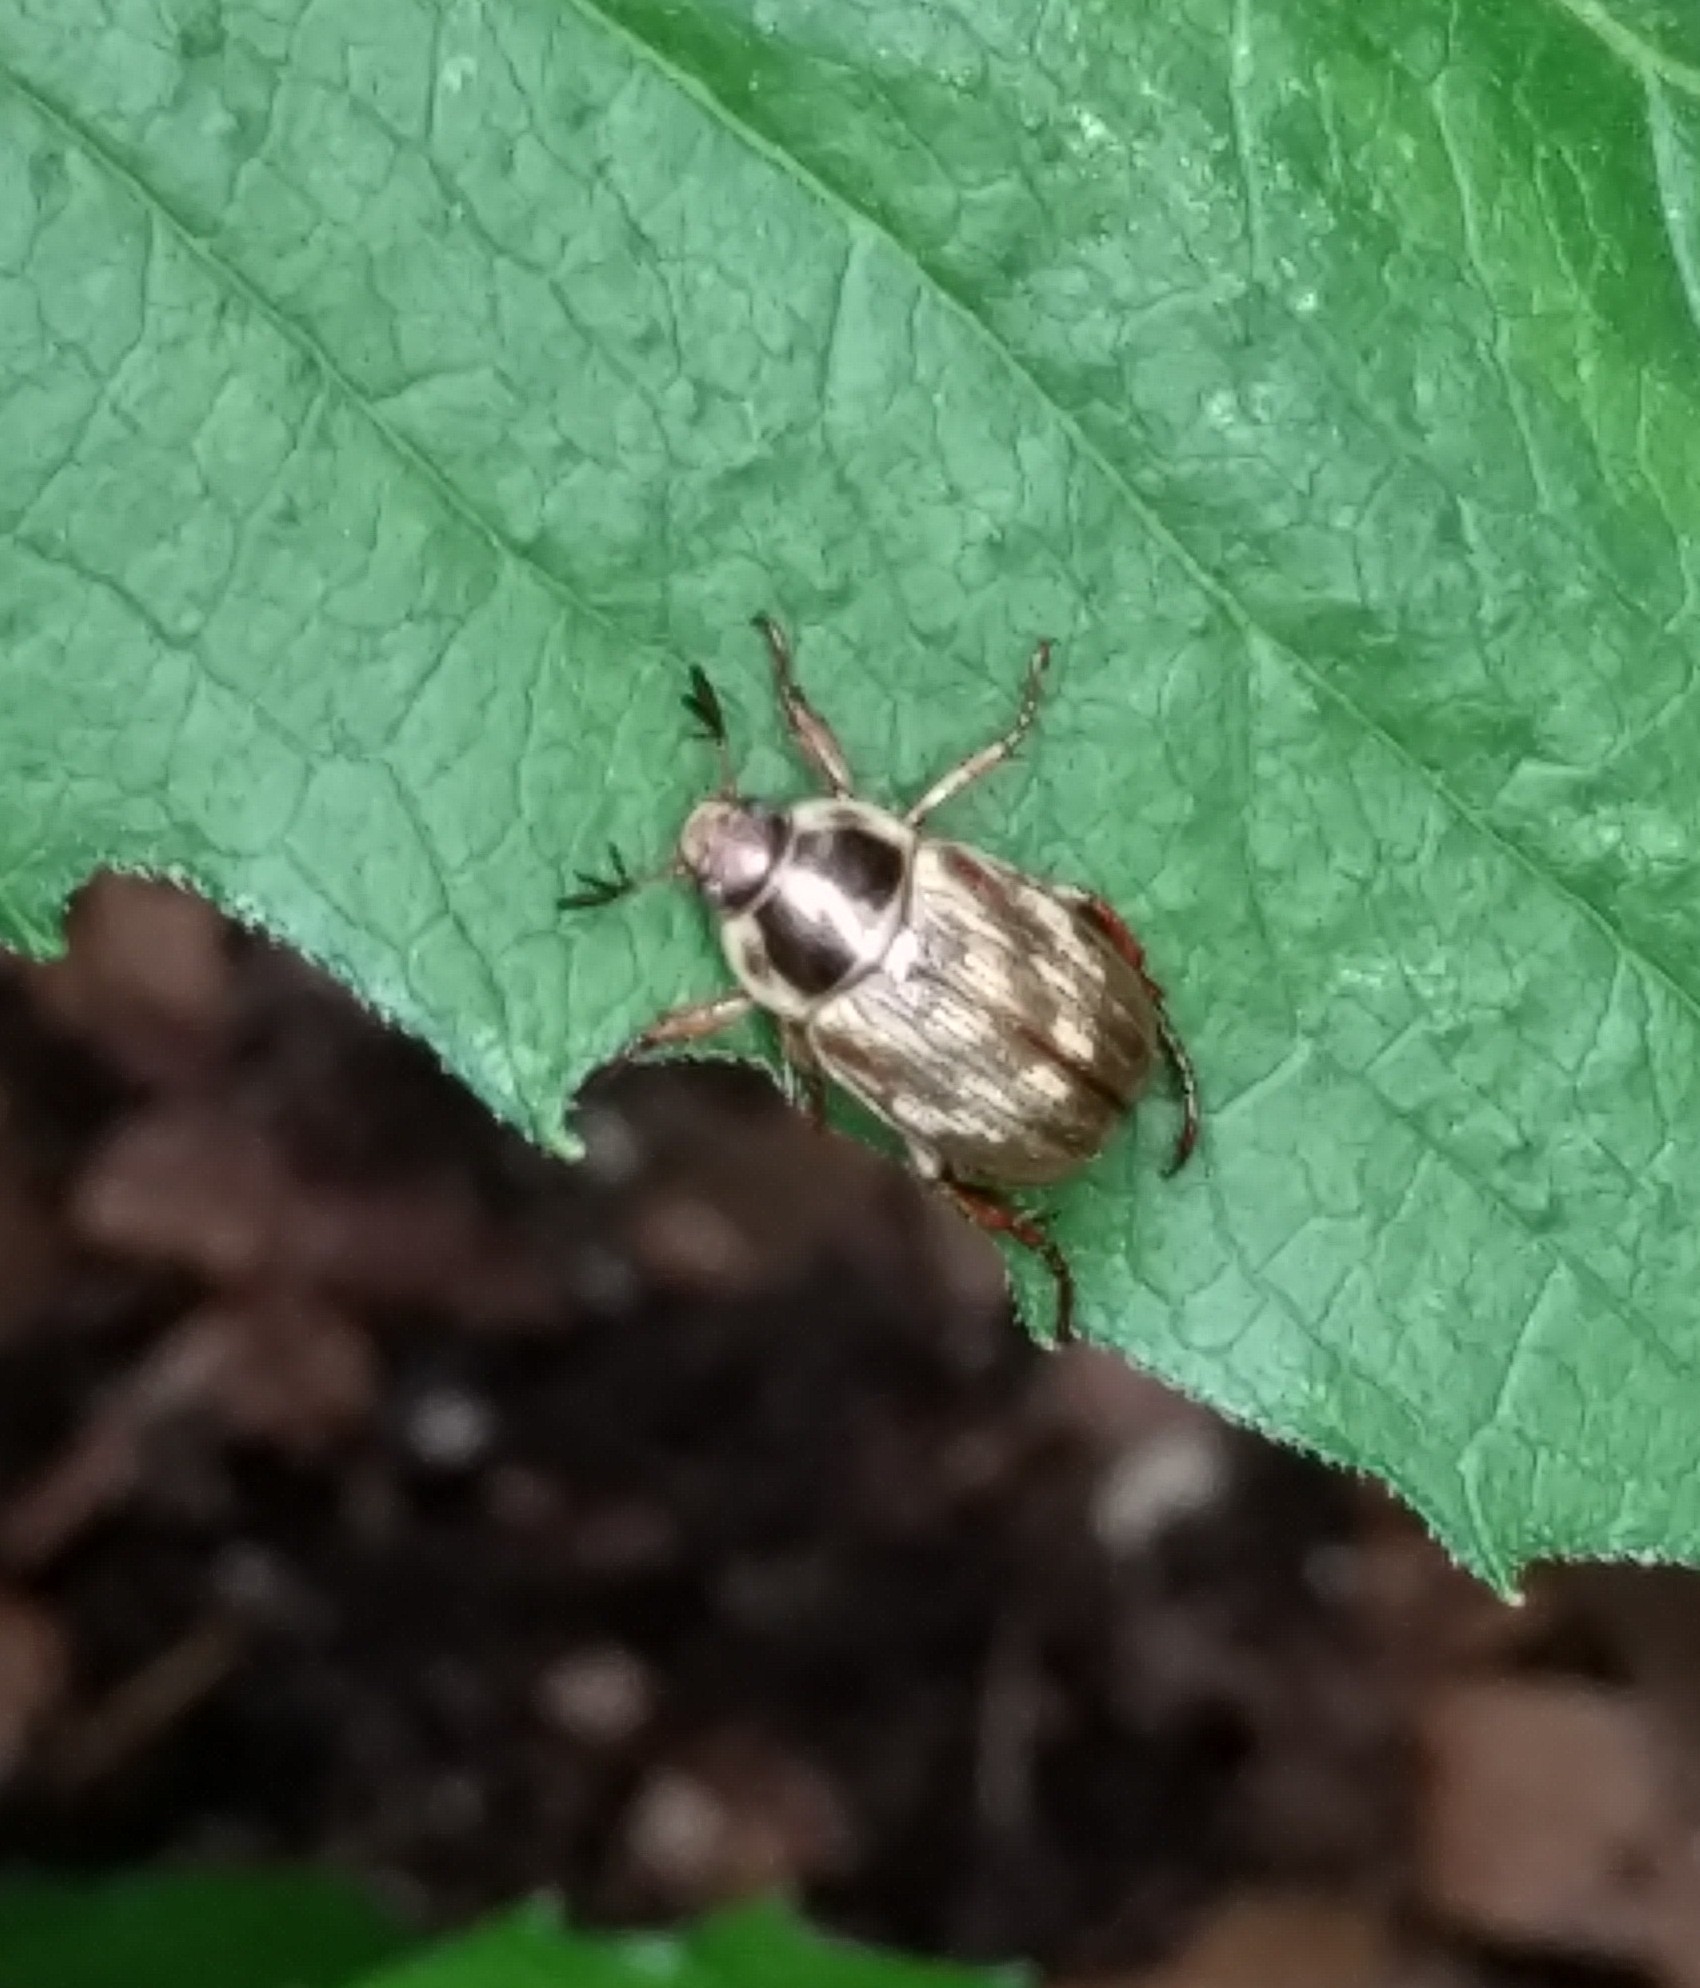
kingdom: Animalia
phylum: Arthropoda
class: Insecta
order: Coleoptera
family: Scarabaeidae
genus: Exomala
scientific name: Exomala orientalis
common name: Oriental beetle
